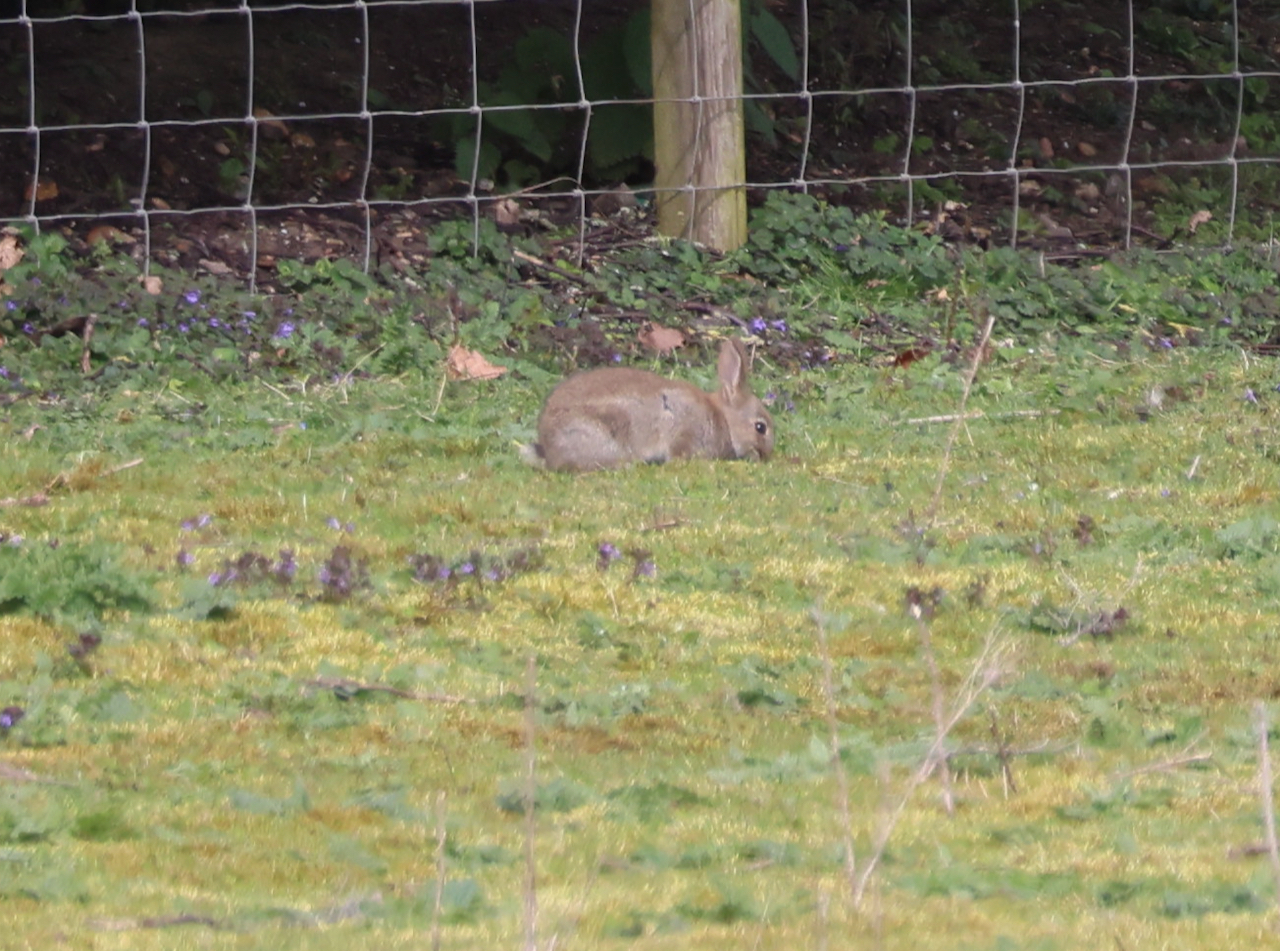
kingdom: Animalia
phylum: Chordata
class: Mammalia
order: Lagomorpha
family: Leporidae
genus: Oryctolagus
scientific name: Oryctolagus cuniculus
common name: European rabbit
